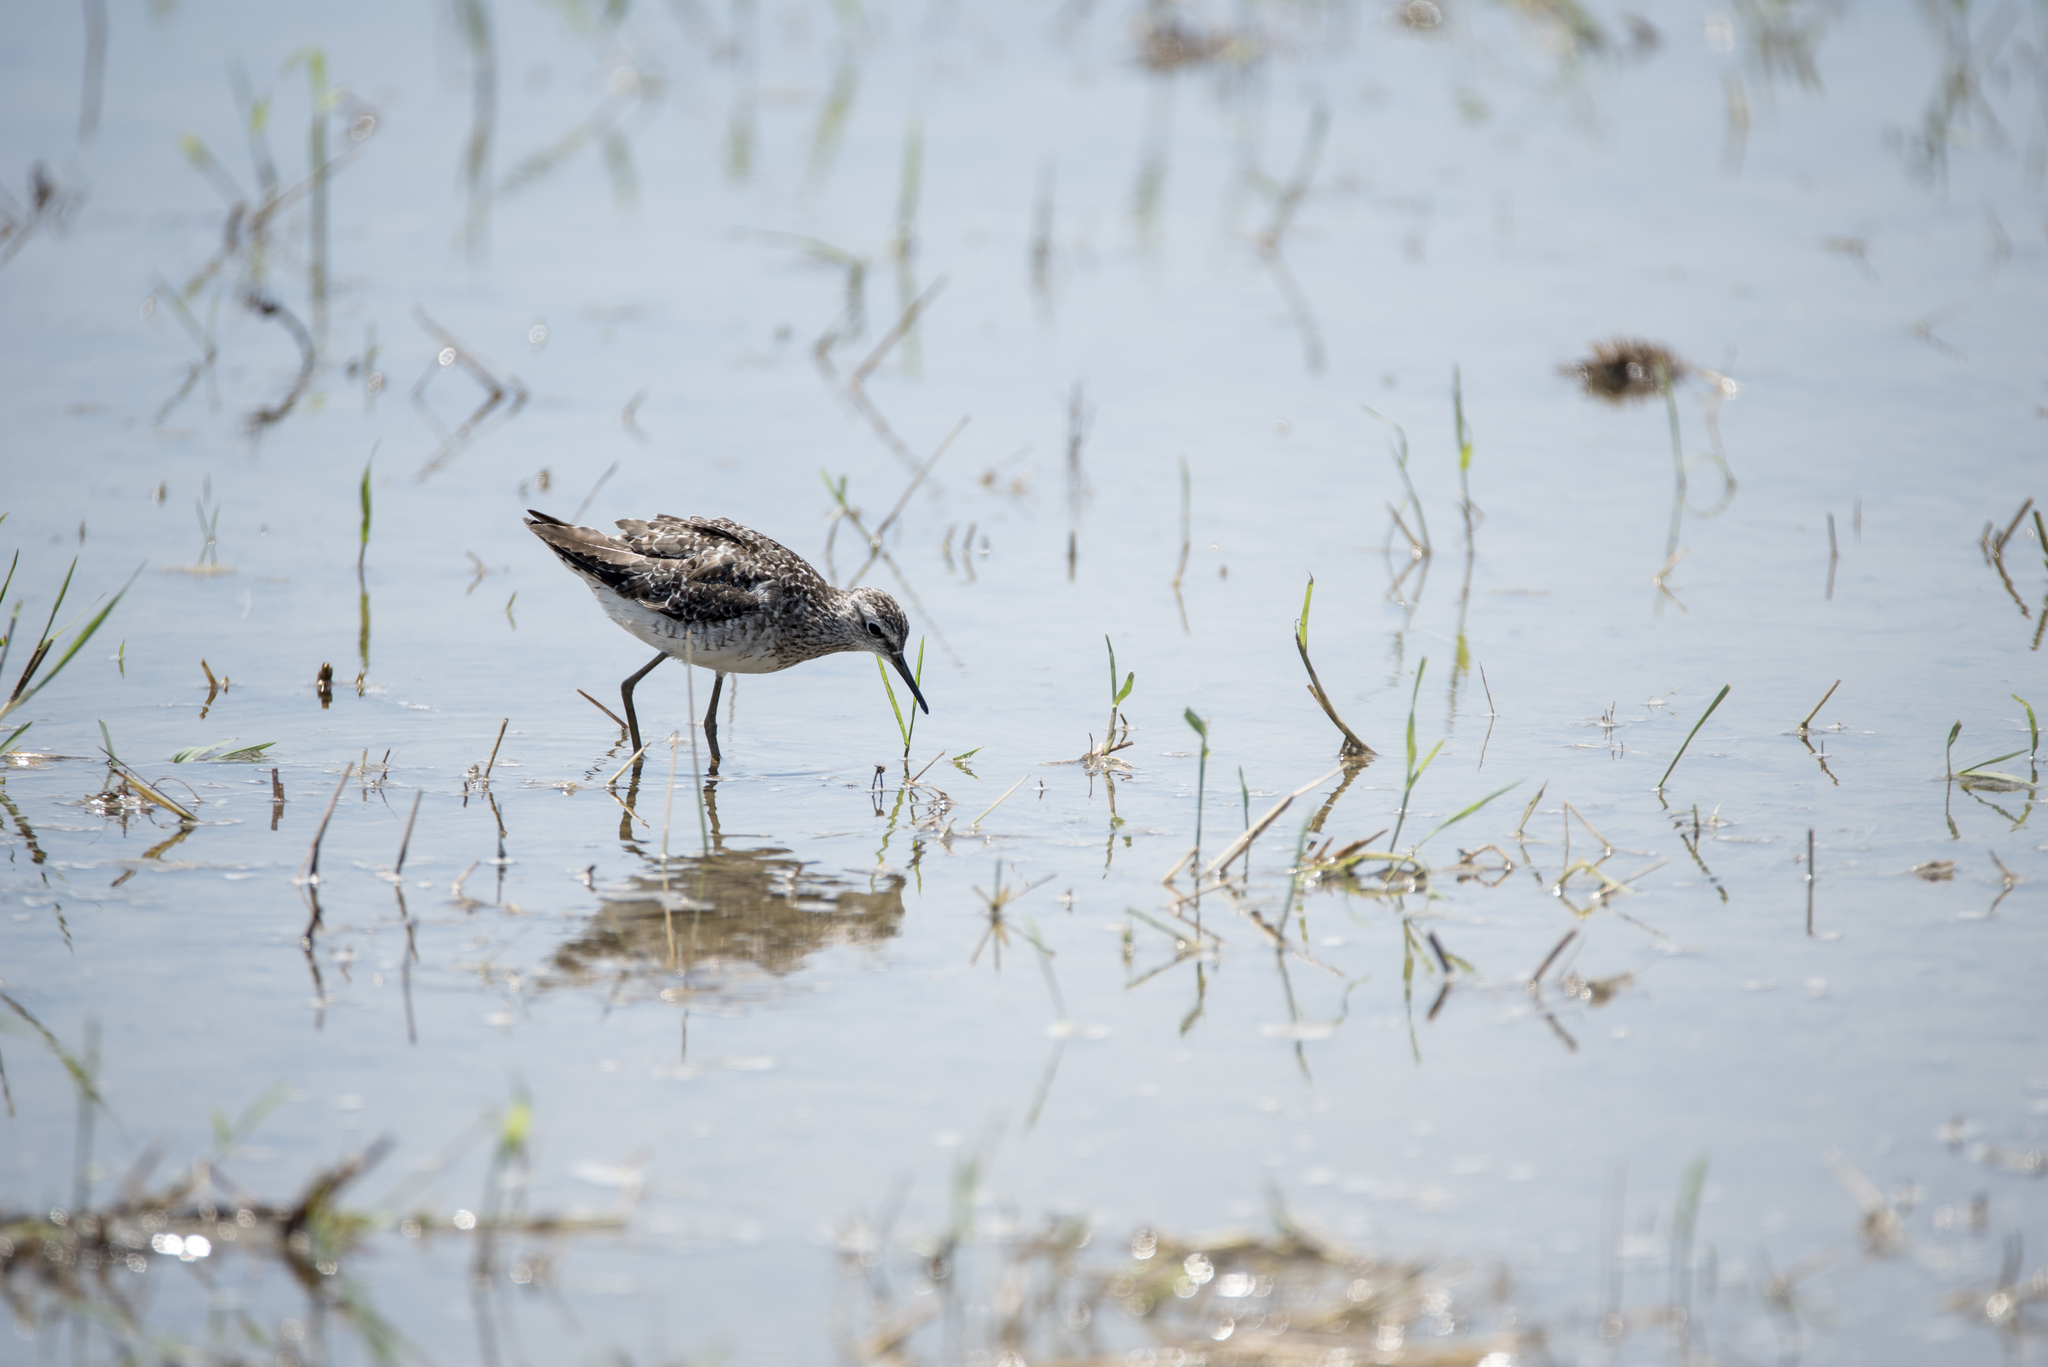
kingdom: Animalia
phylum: Chordata
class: Aves
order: Charadriiformes
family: Scolopacidae
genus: Tringa
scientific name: Tringa glareola
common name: Wood sandpiper
